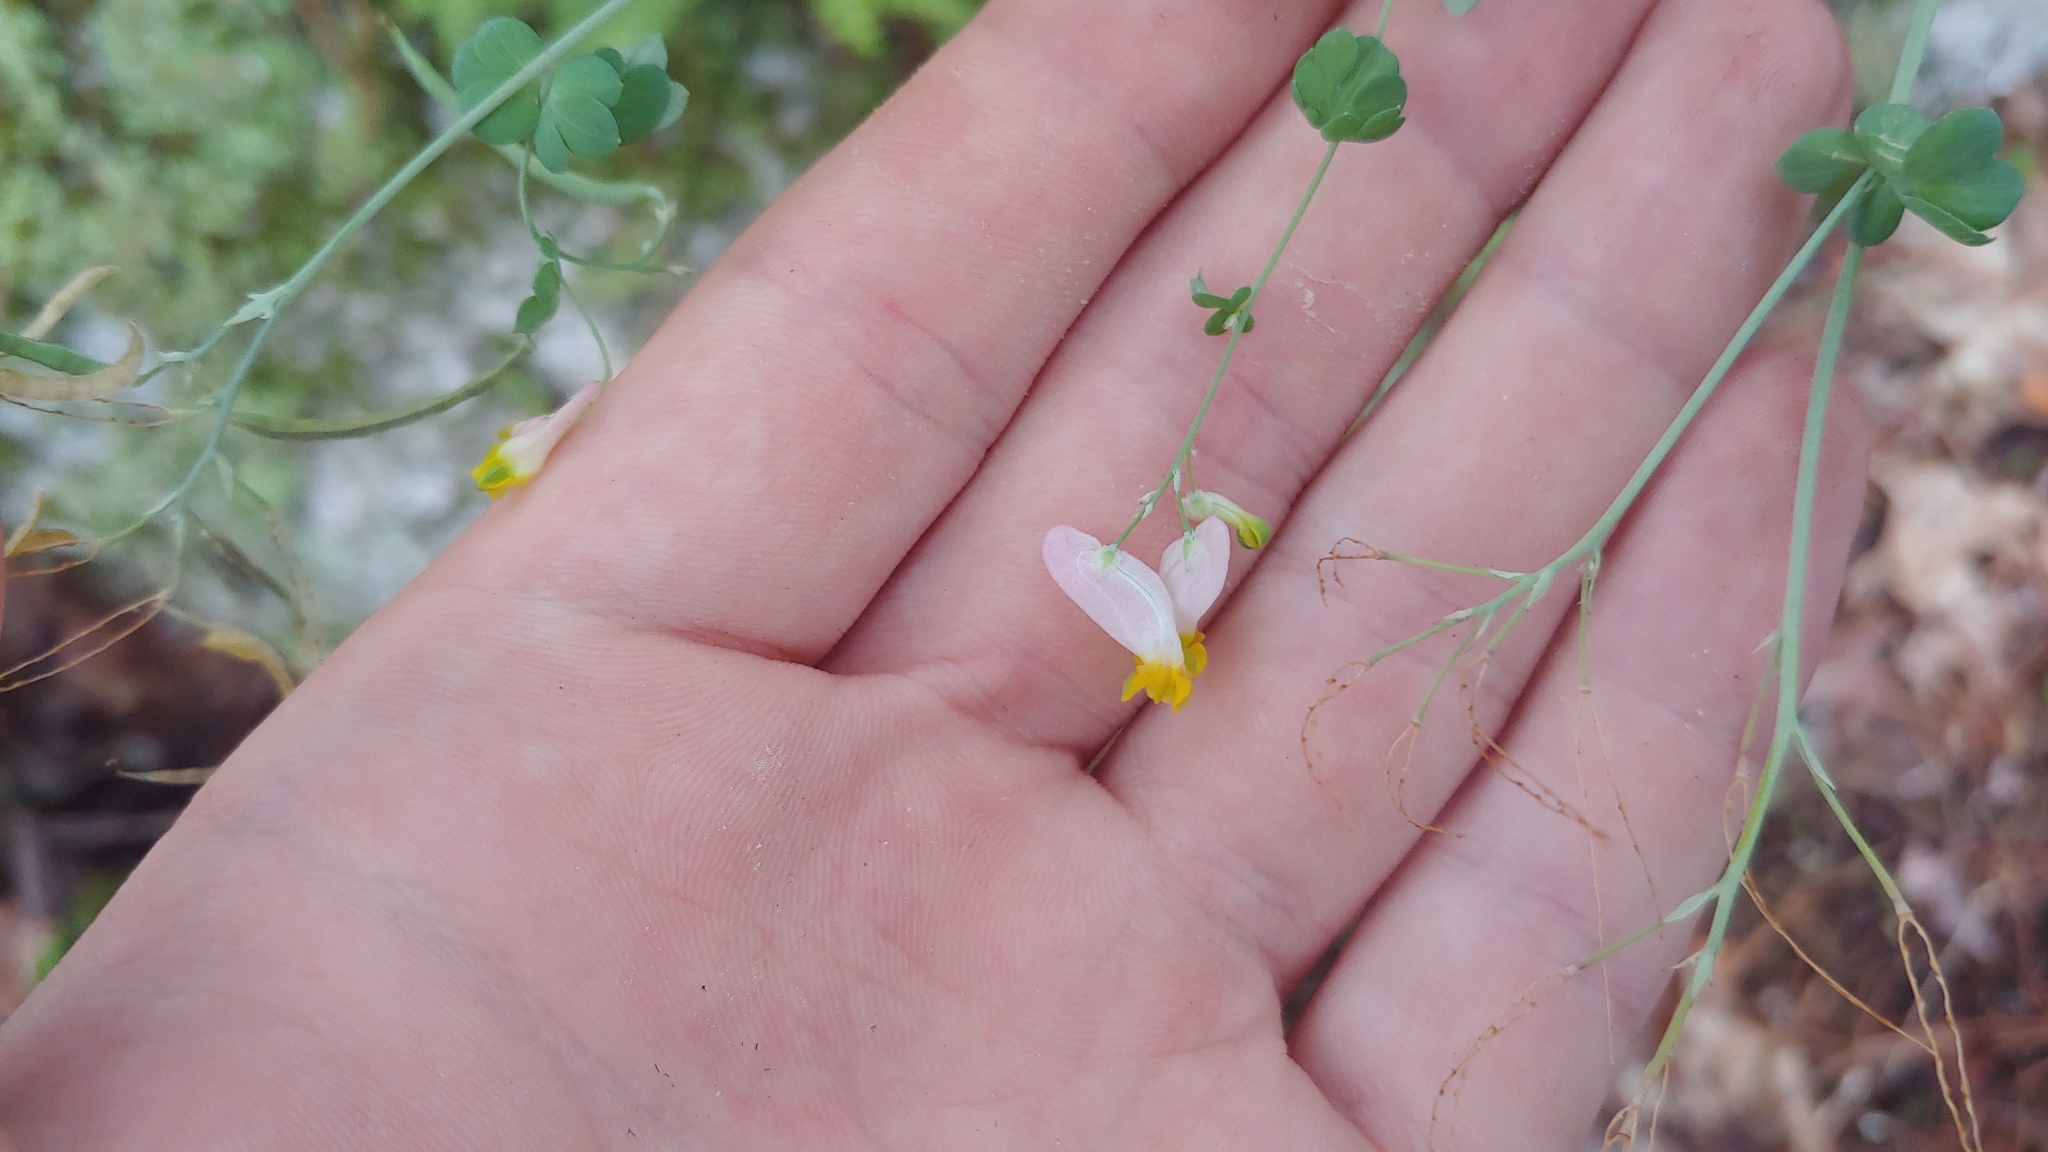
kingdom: Plantae
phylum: Tracheophyta
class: Magnoliopsida
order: Ranunculales
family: Papaveraceae
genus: Capnoides
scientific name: Capnoides sempervirens
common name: Rock harlequin
